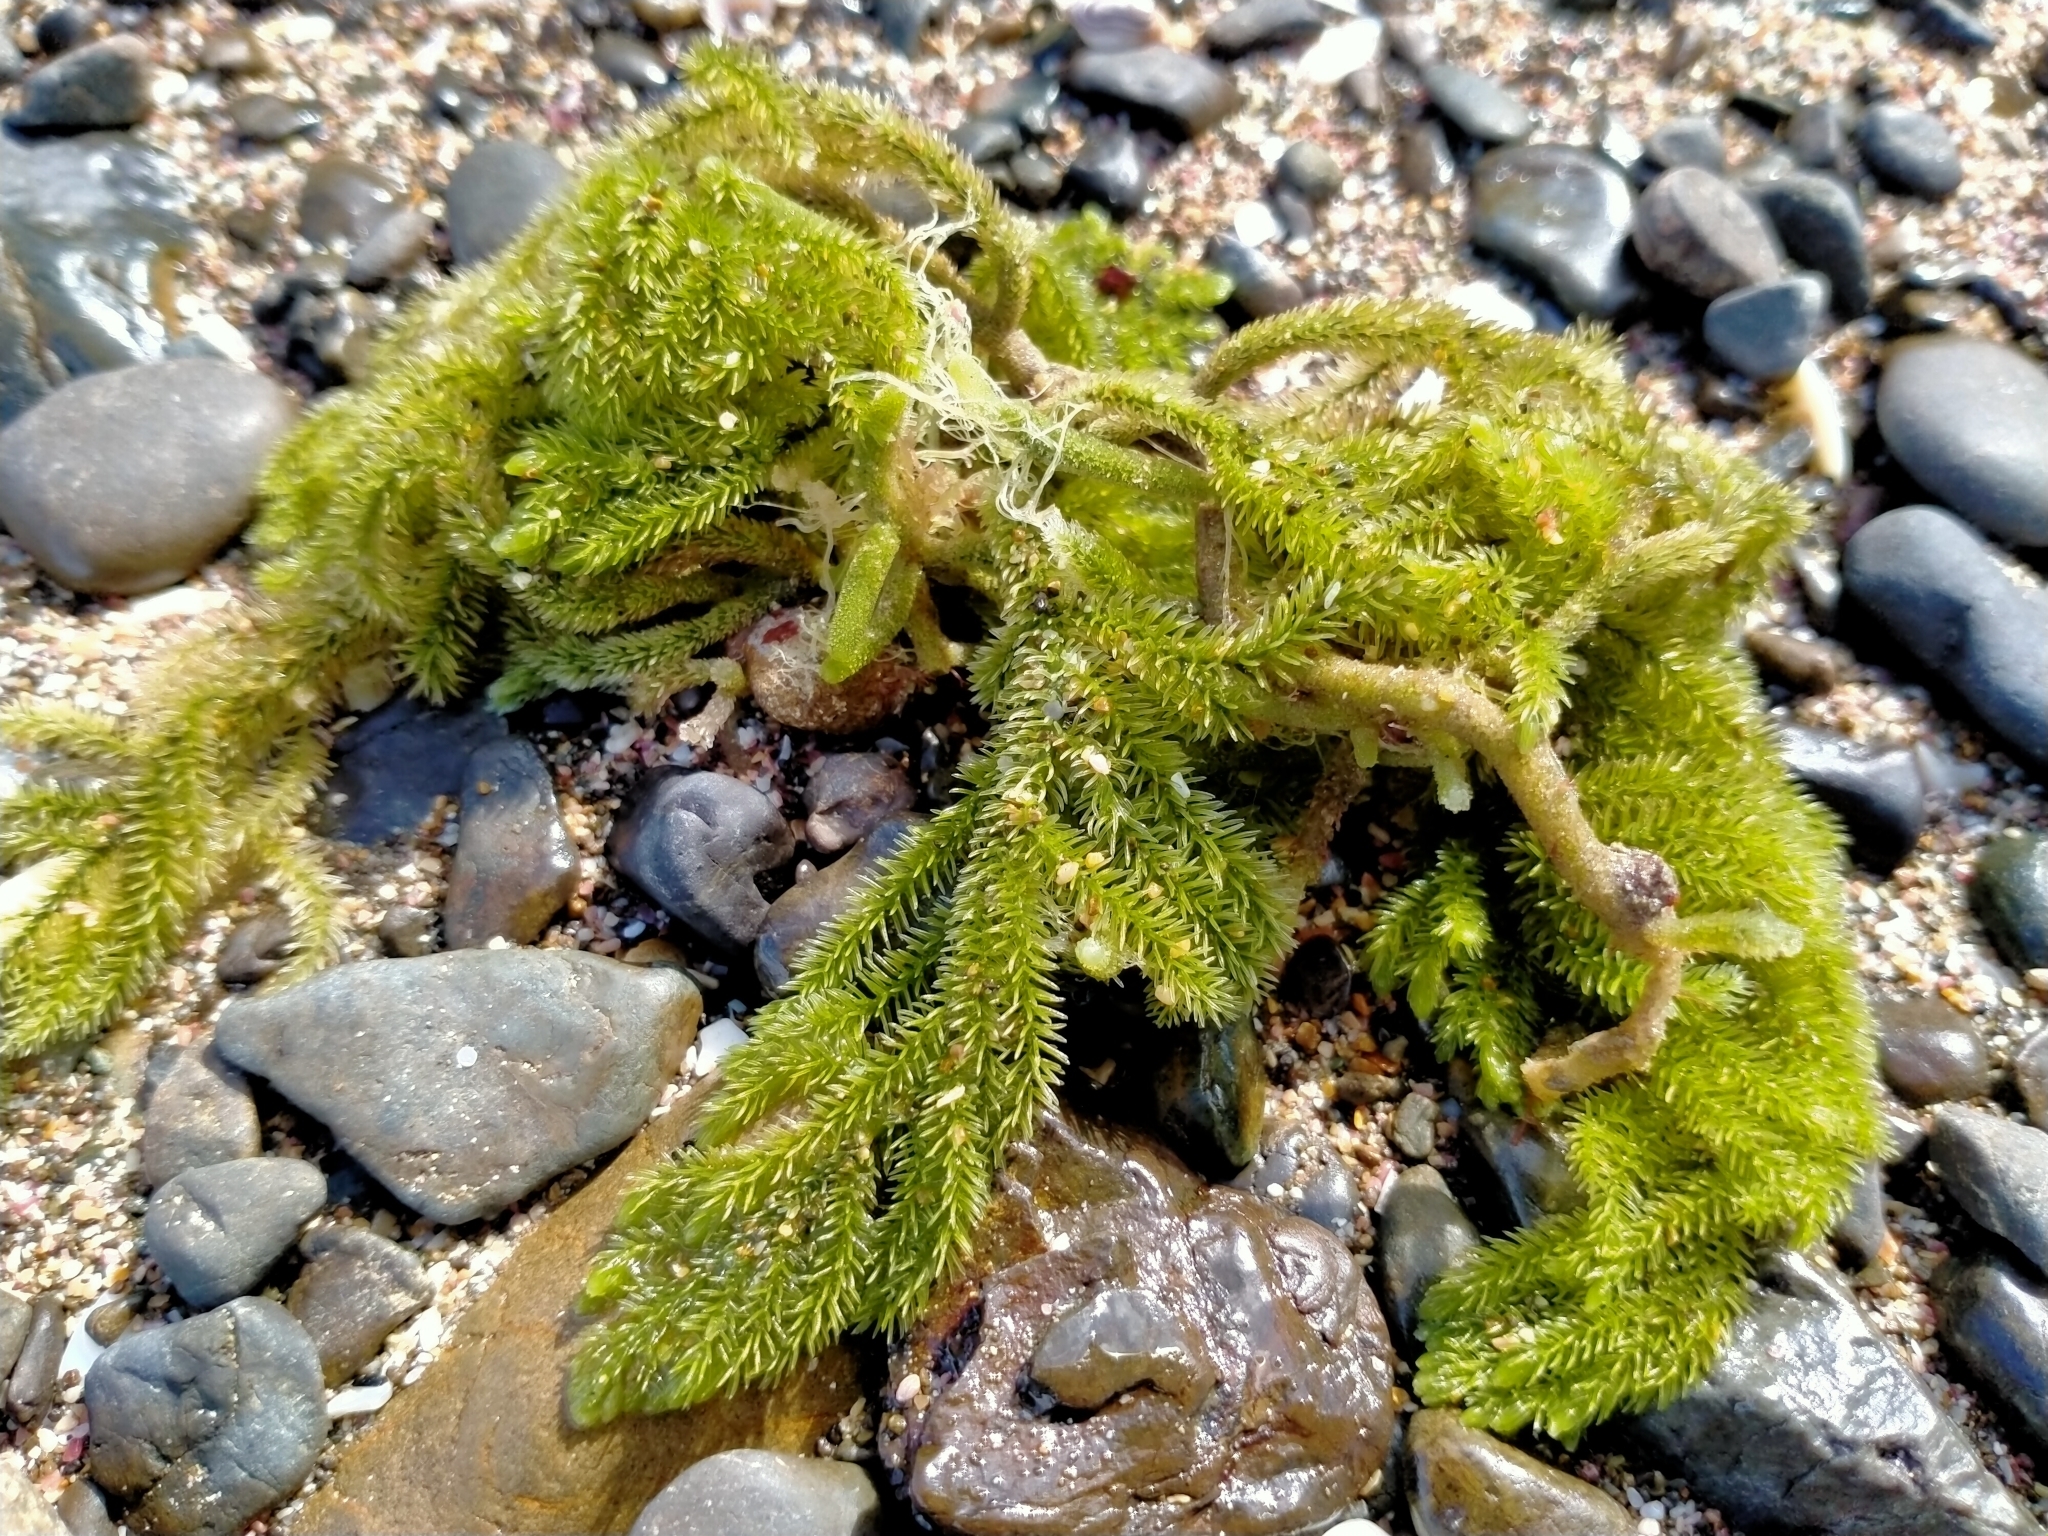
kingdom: Plantae
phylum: Chlorophyta
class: Ulvophyceae
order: Bryopsidales
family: Caulerpaceae
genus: Caulerpa
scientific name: Caulerpa flexilis
